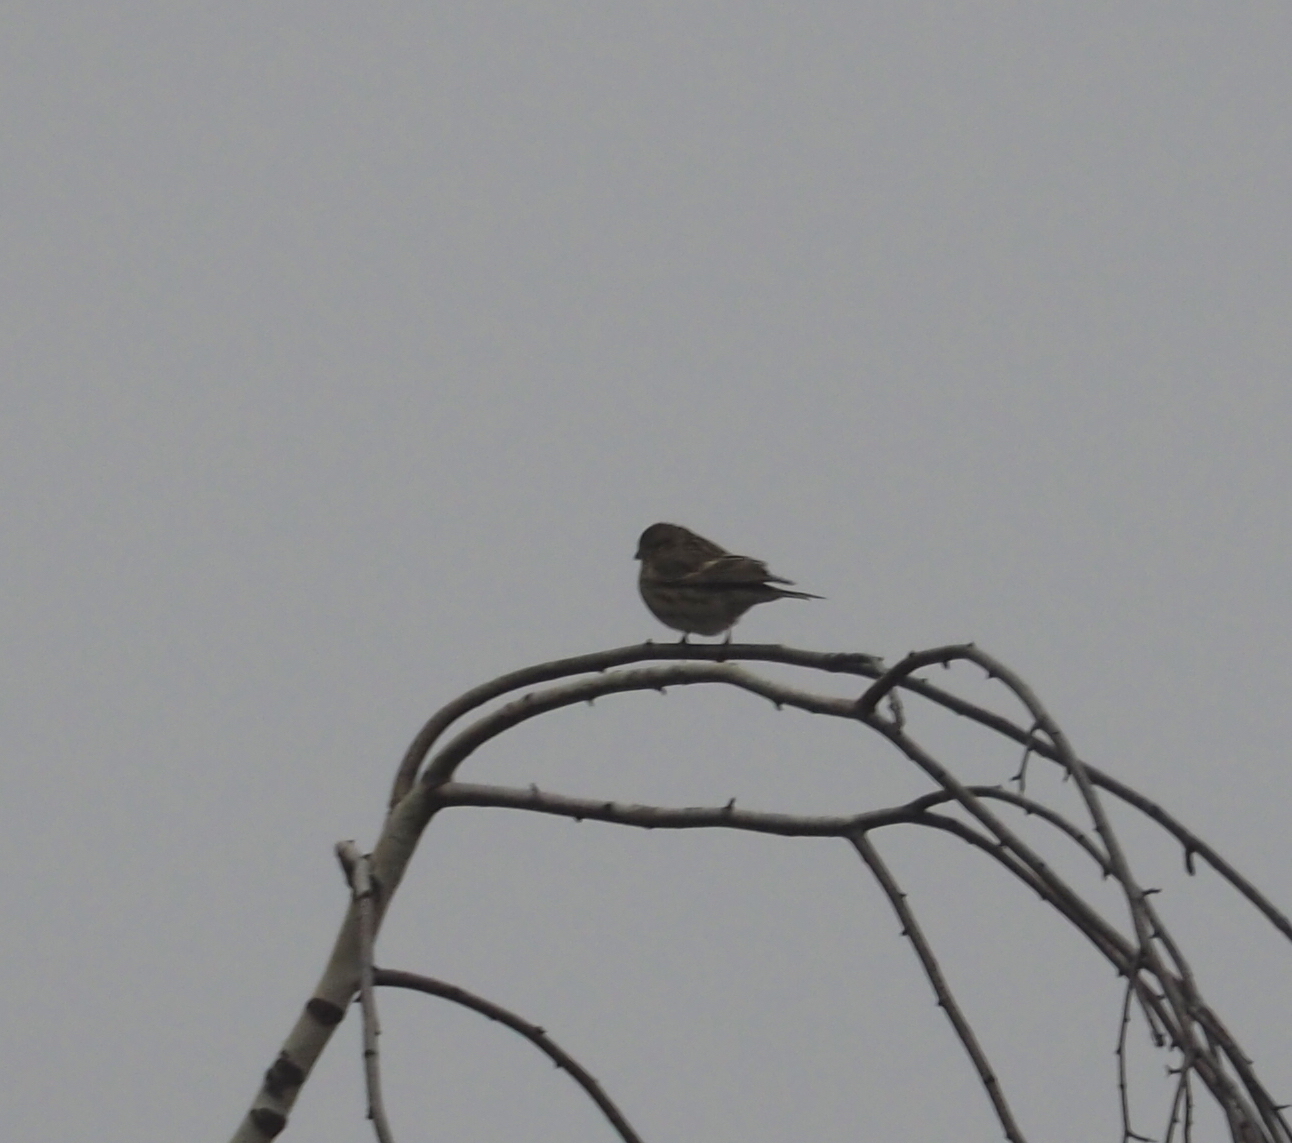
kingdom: Animalia
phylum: Chordata
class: Aves
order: Passeriformes
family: Fringillidae
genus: Serinus
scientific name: Serinus serinus
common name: European serin
